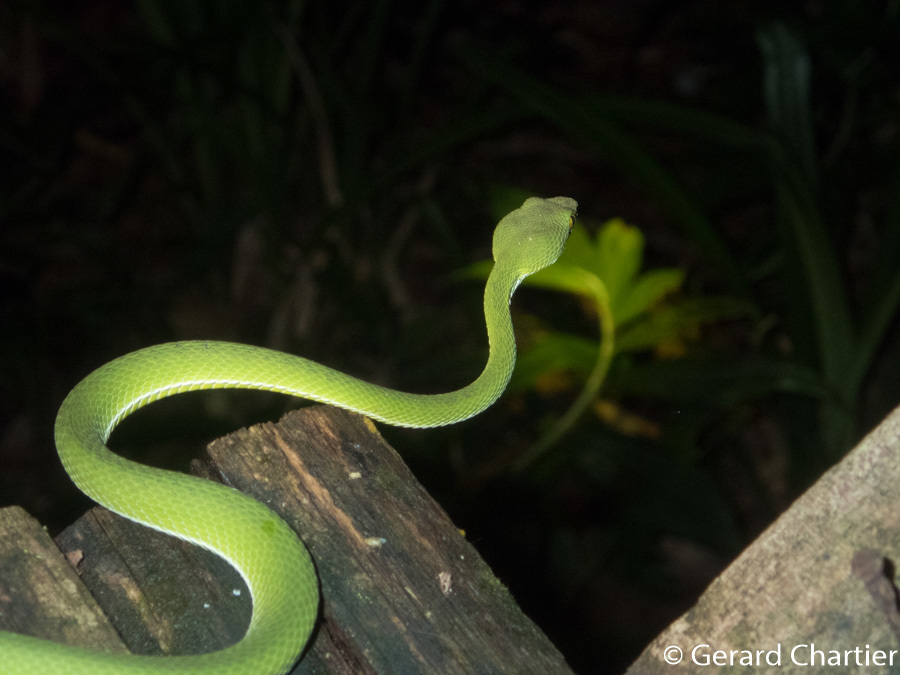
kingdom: Animalia
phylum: Chordata
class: Squamata
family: Viperidae
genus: Trimeresurus
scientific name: Trimeresurus cardamomensis
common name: Cardamom mountains green pitviper
